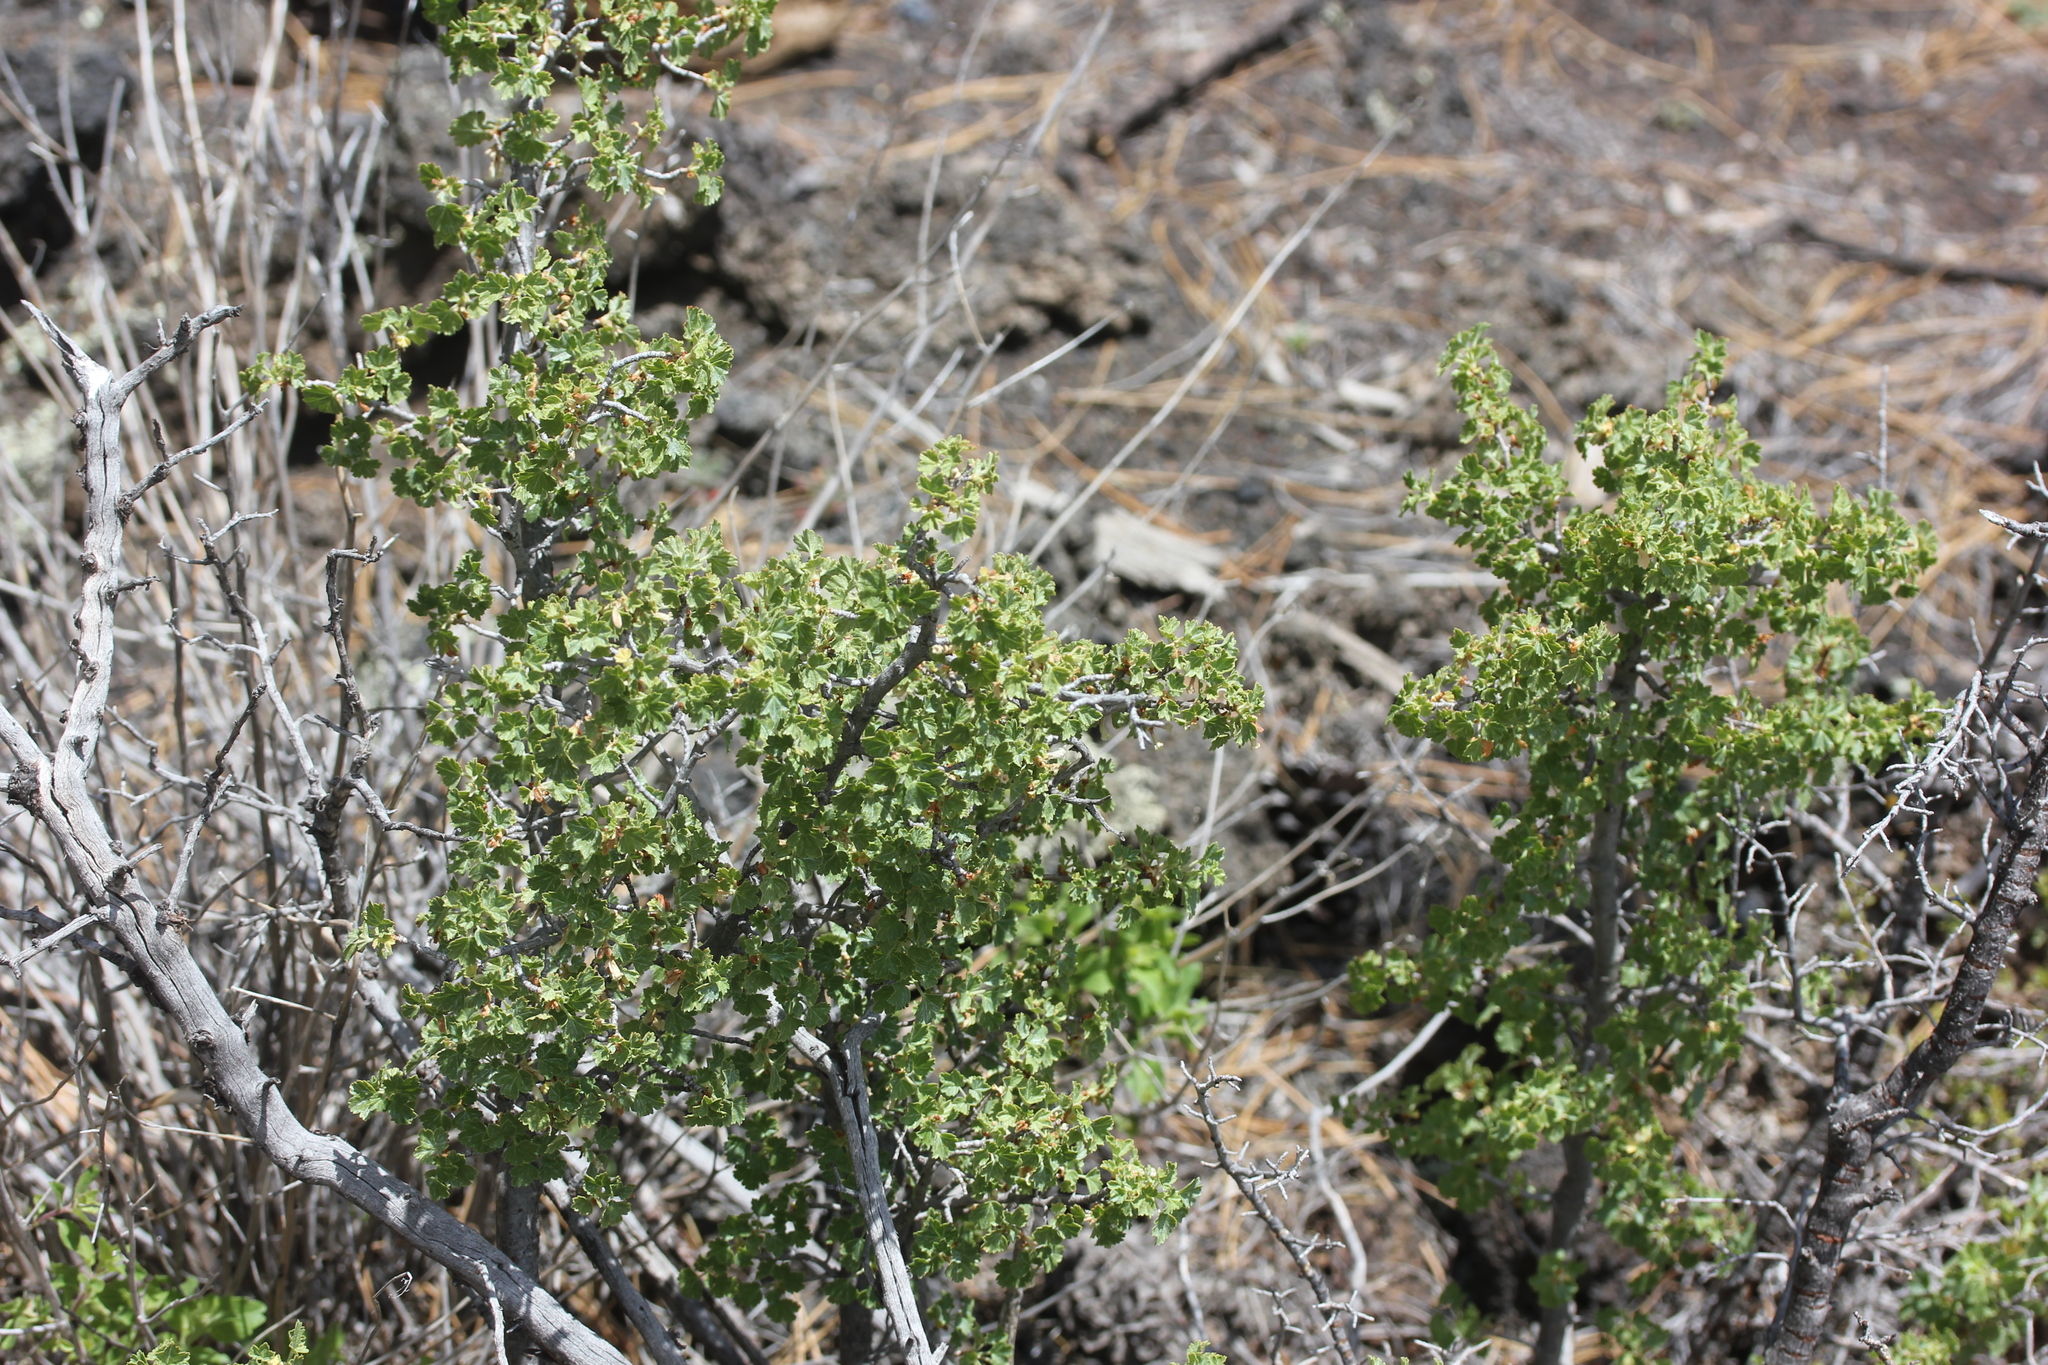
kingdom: Plantae
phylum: Tracheophyta
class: Magnoliopsida
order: Saxifragales
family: Grossulariaceae
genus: Ribes
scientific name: Ribes cereum
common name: Wax currant
